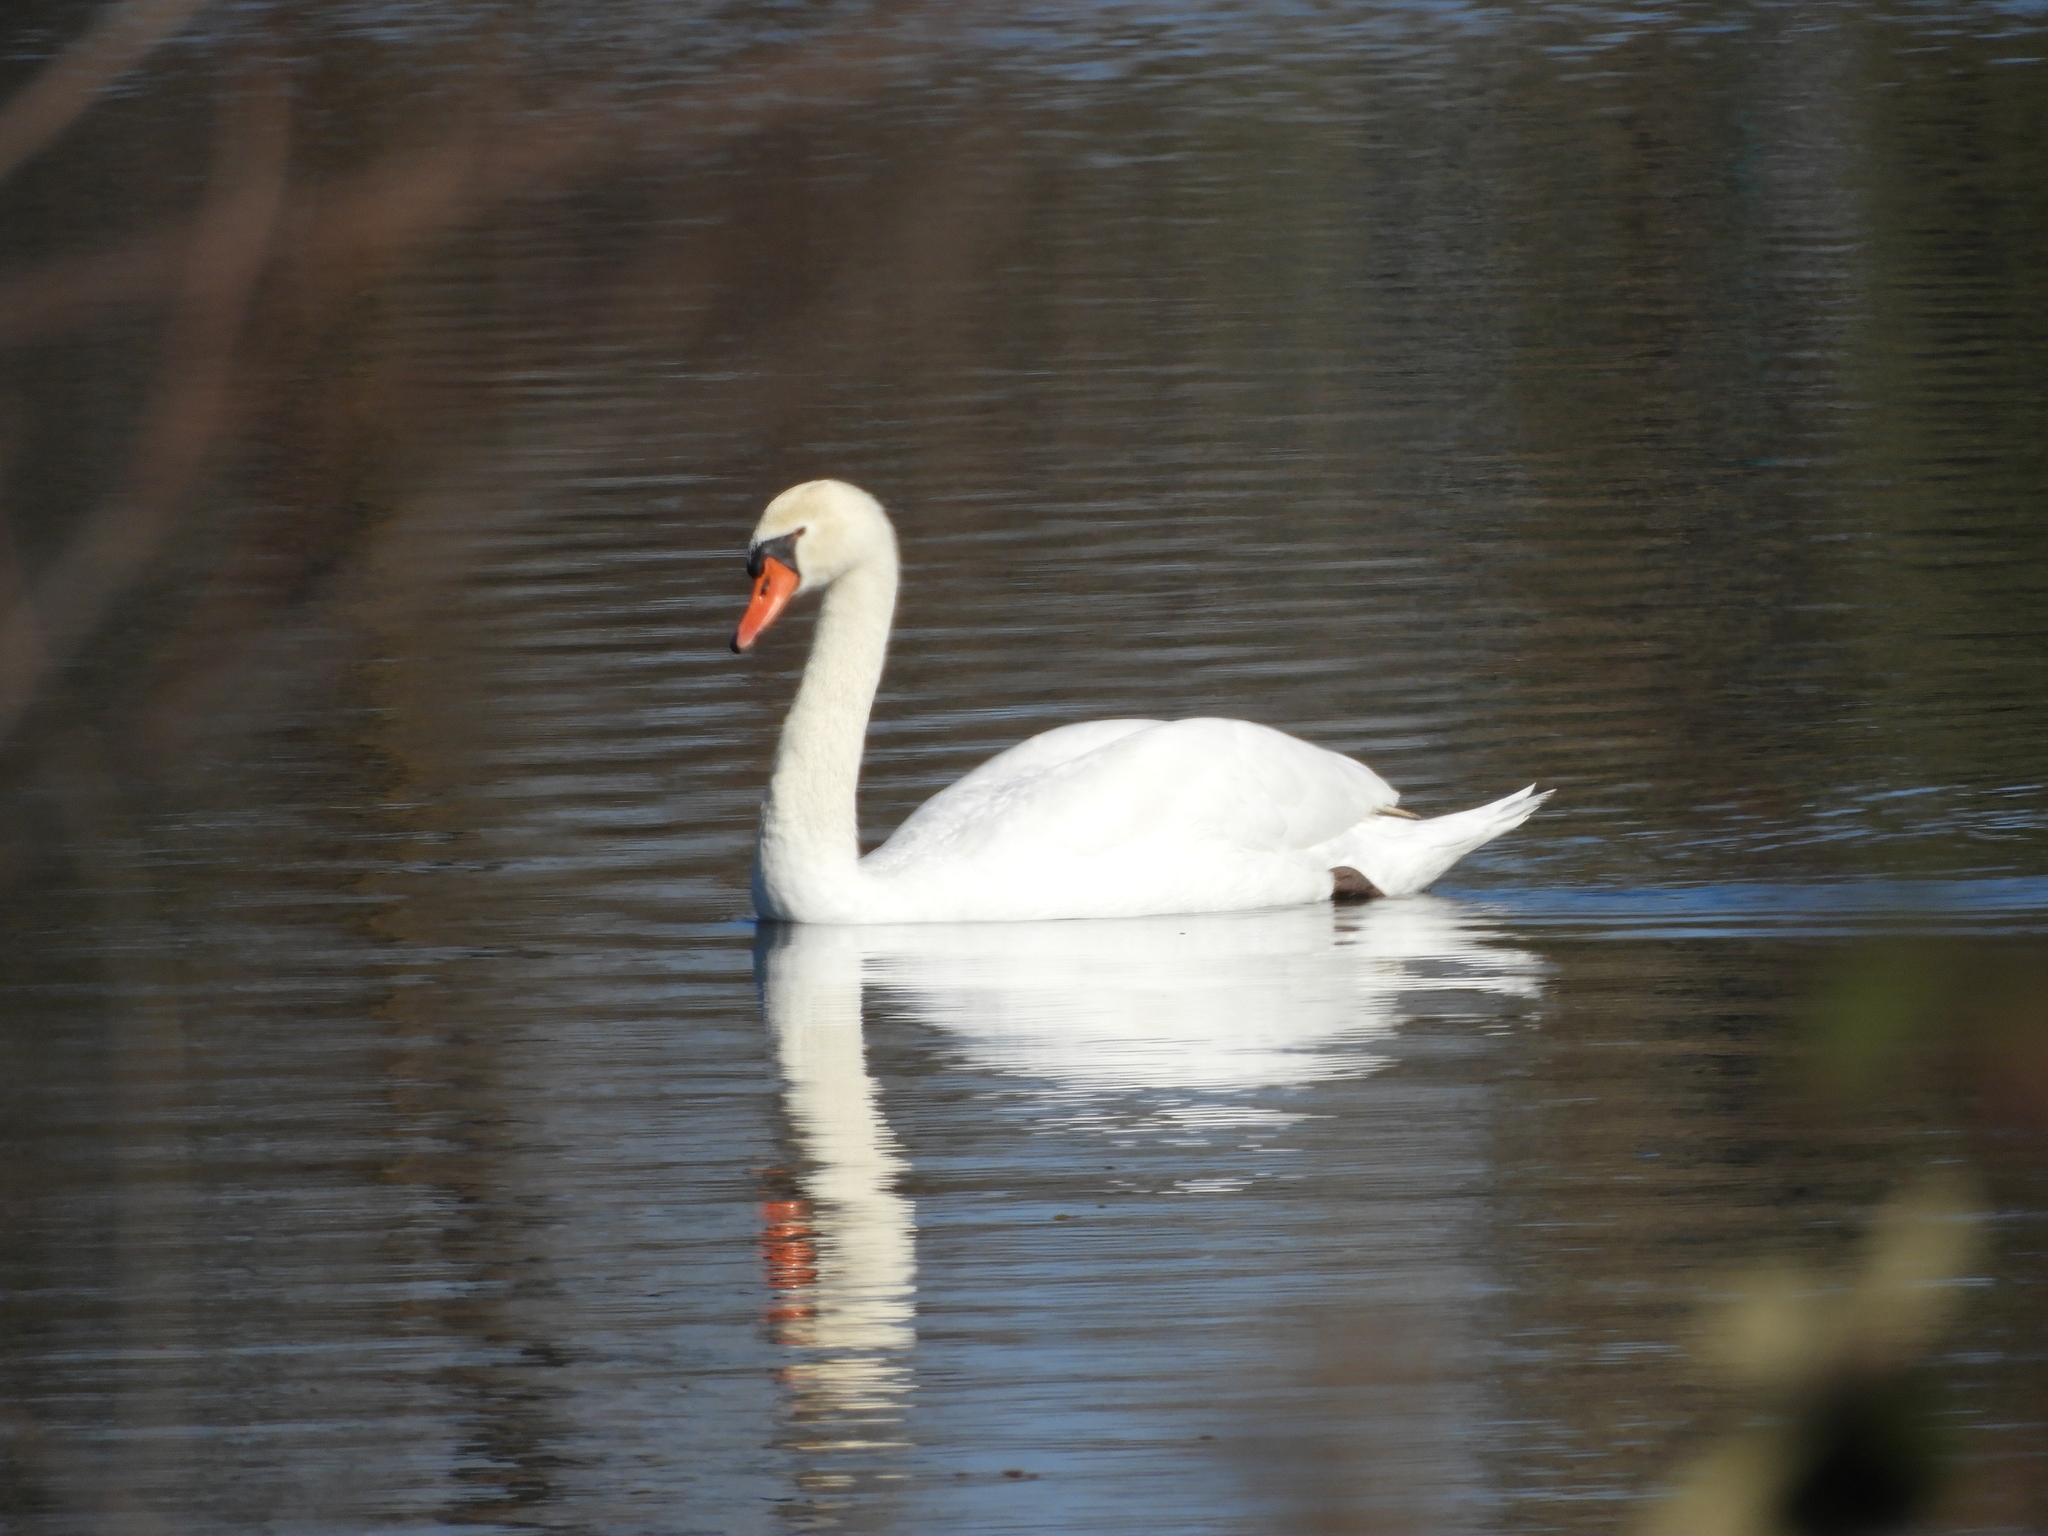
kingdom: Animalia
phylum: Chordata
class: Aves
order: Anseriformes
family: Anatidae
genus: Cygnus
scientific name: Cygnus olor
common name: Mute swan
